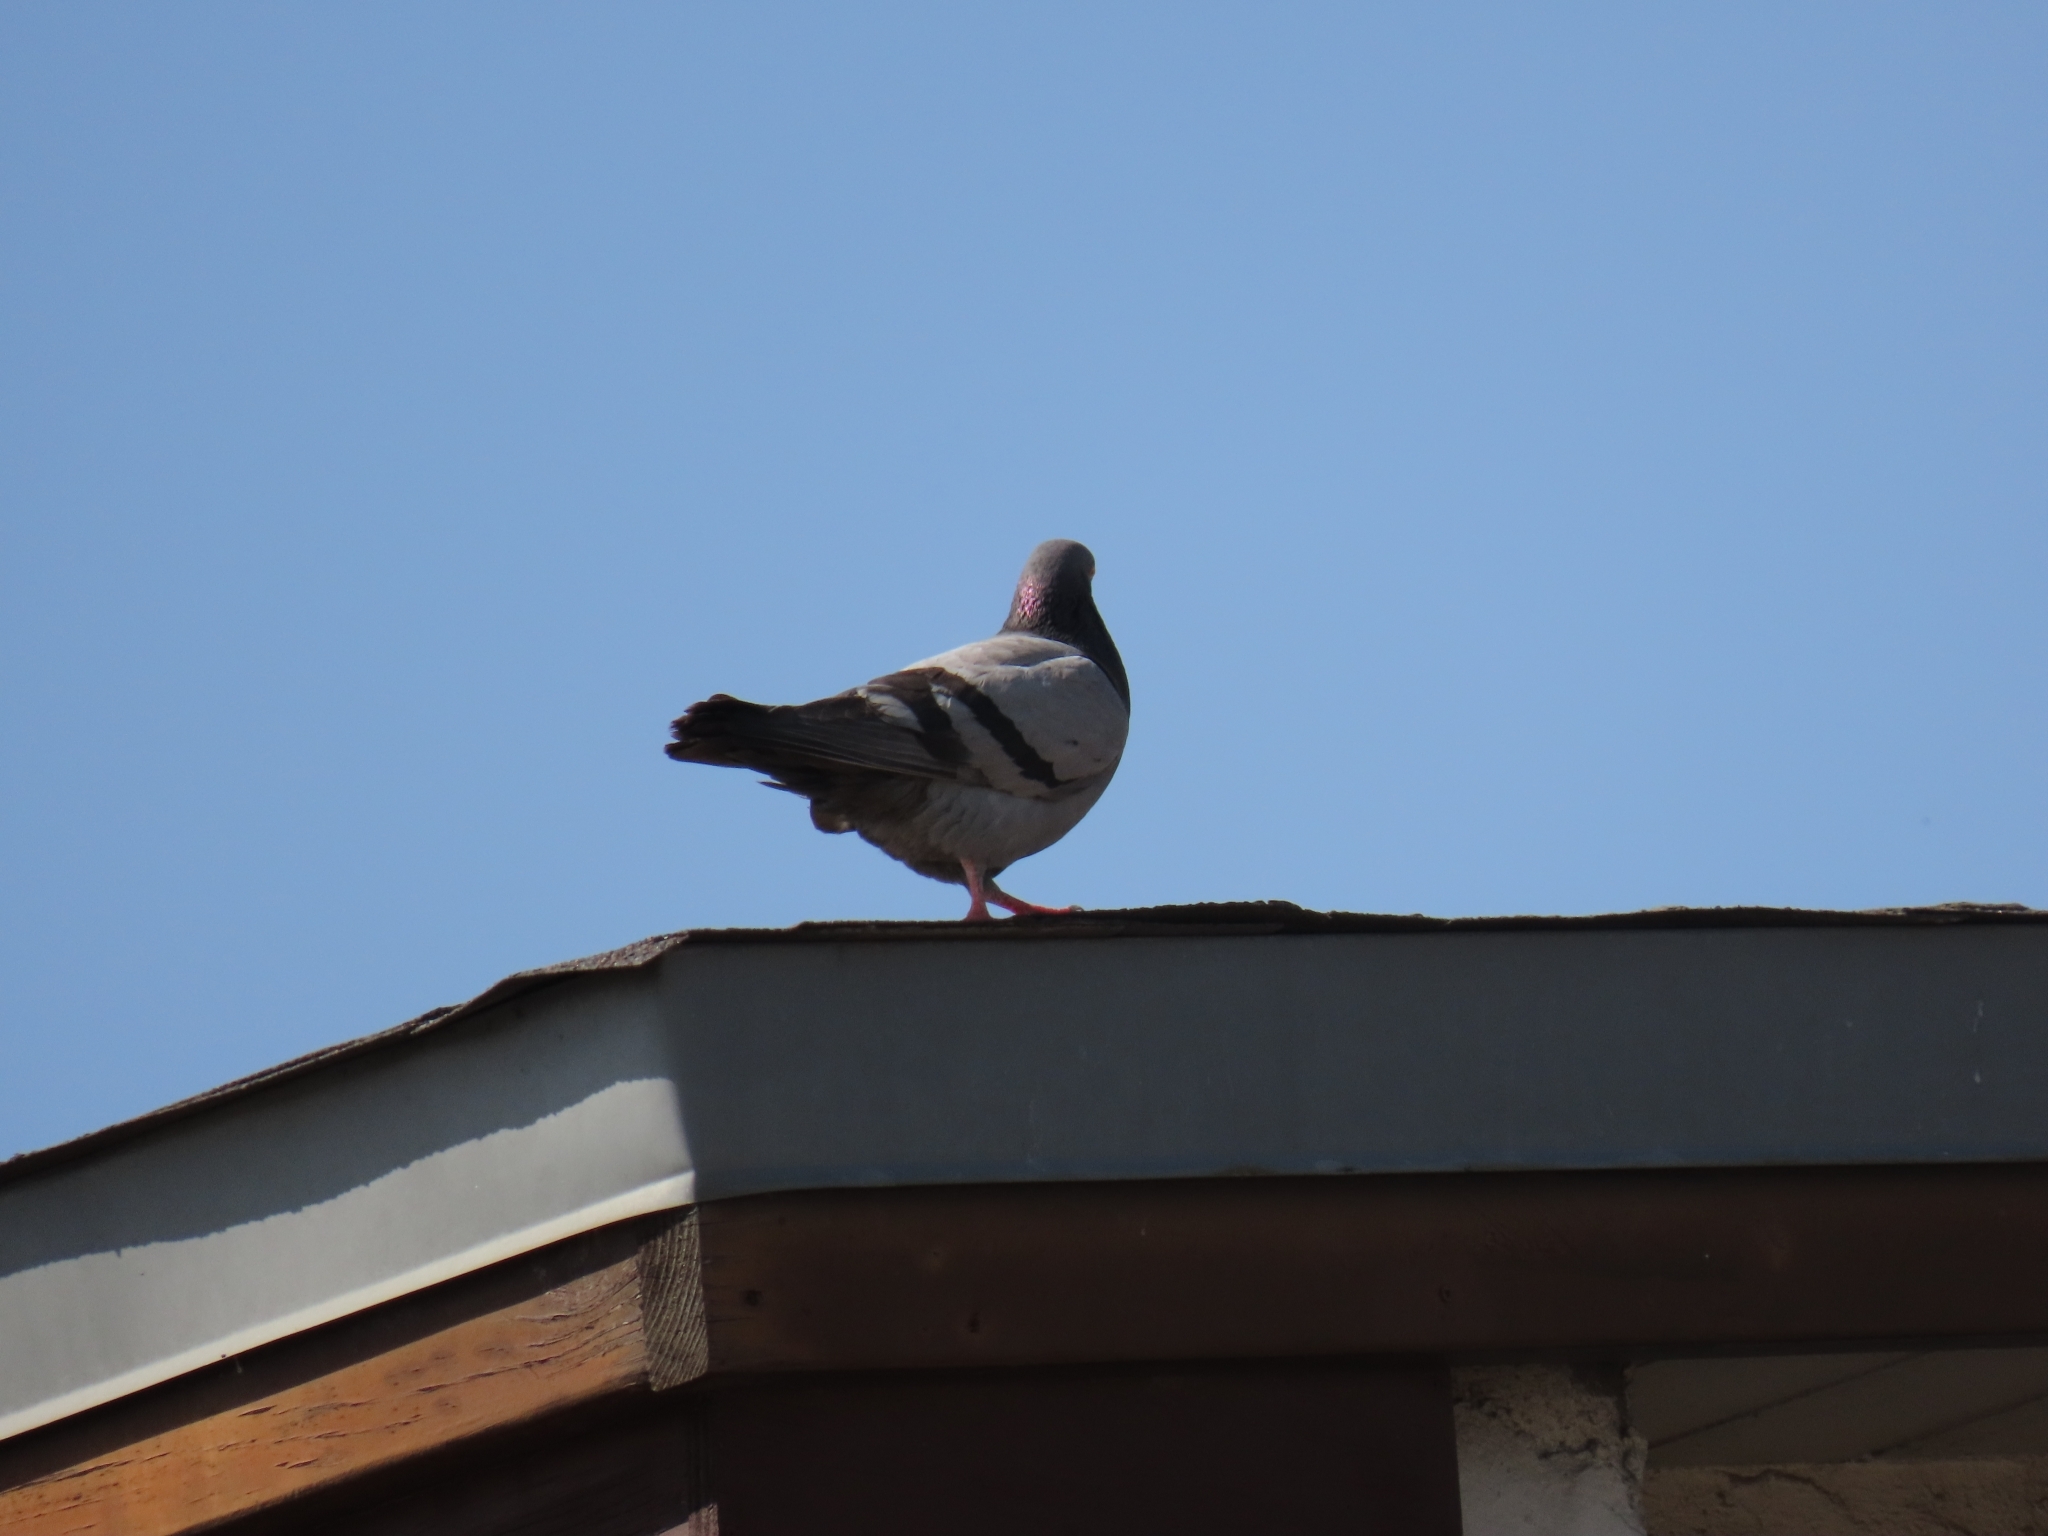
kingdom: Animalia
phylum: Chordata
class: Aves
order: Columbiformes
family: Columbidae
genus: Columba
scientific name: Columba livia
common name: Rock pigeon
